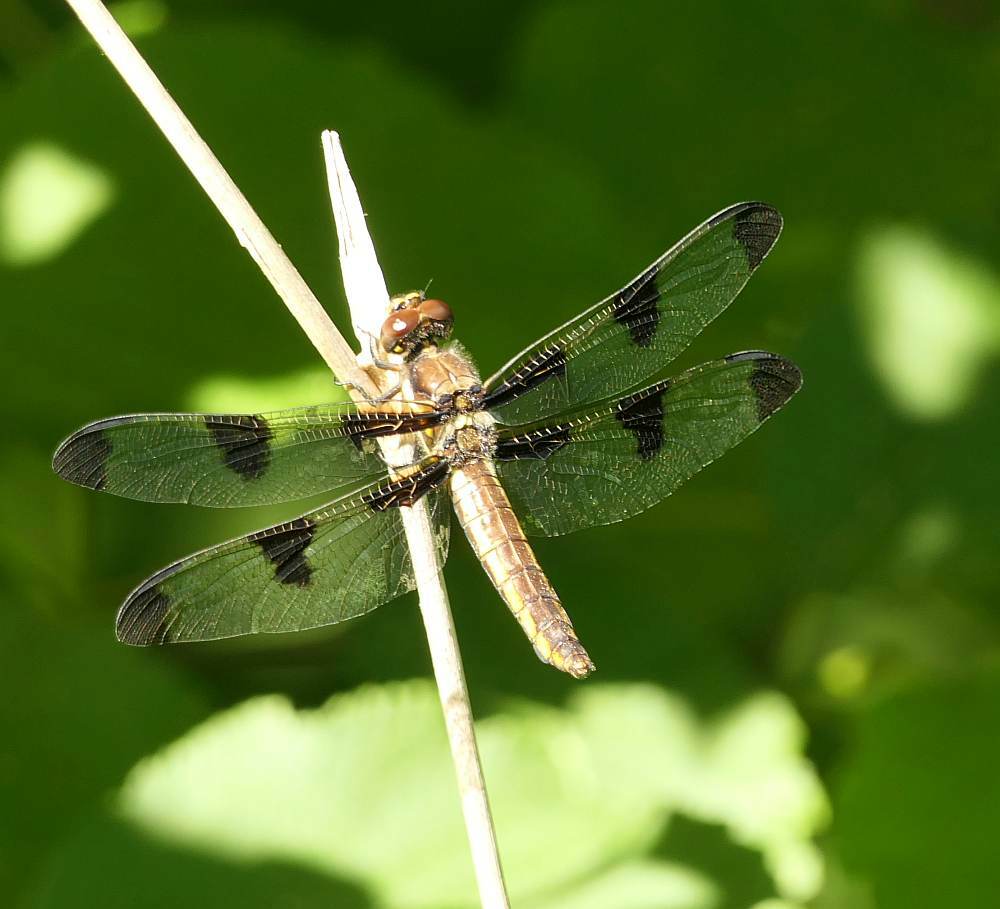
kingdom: Animalia
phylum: Arthropoda
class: Insecta
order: Odonata
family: Libellulidae
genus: Libellula
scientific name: Libellula pulchella
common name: Twelve-spotted skimmer
